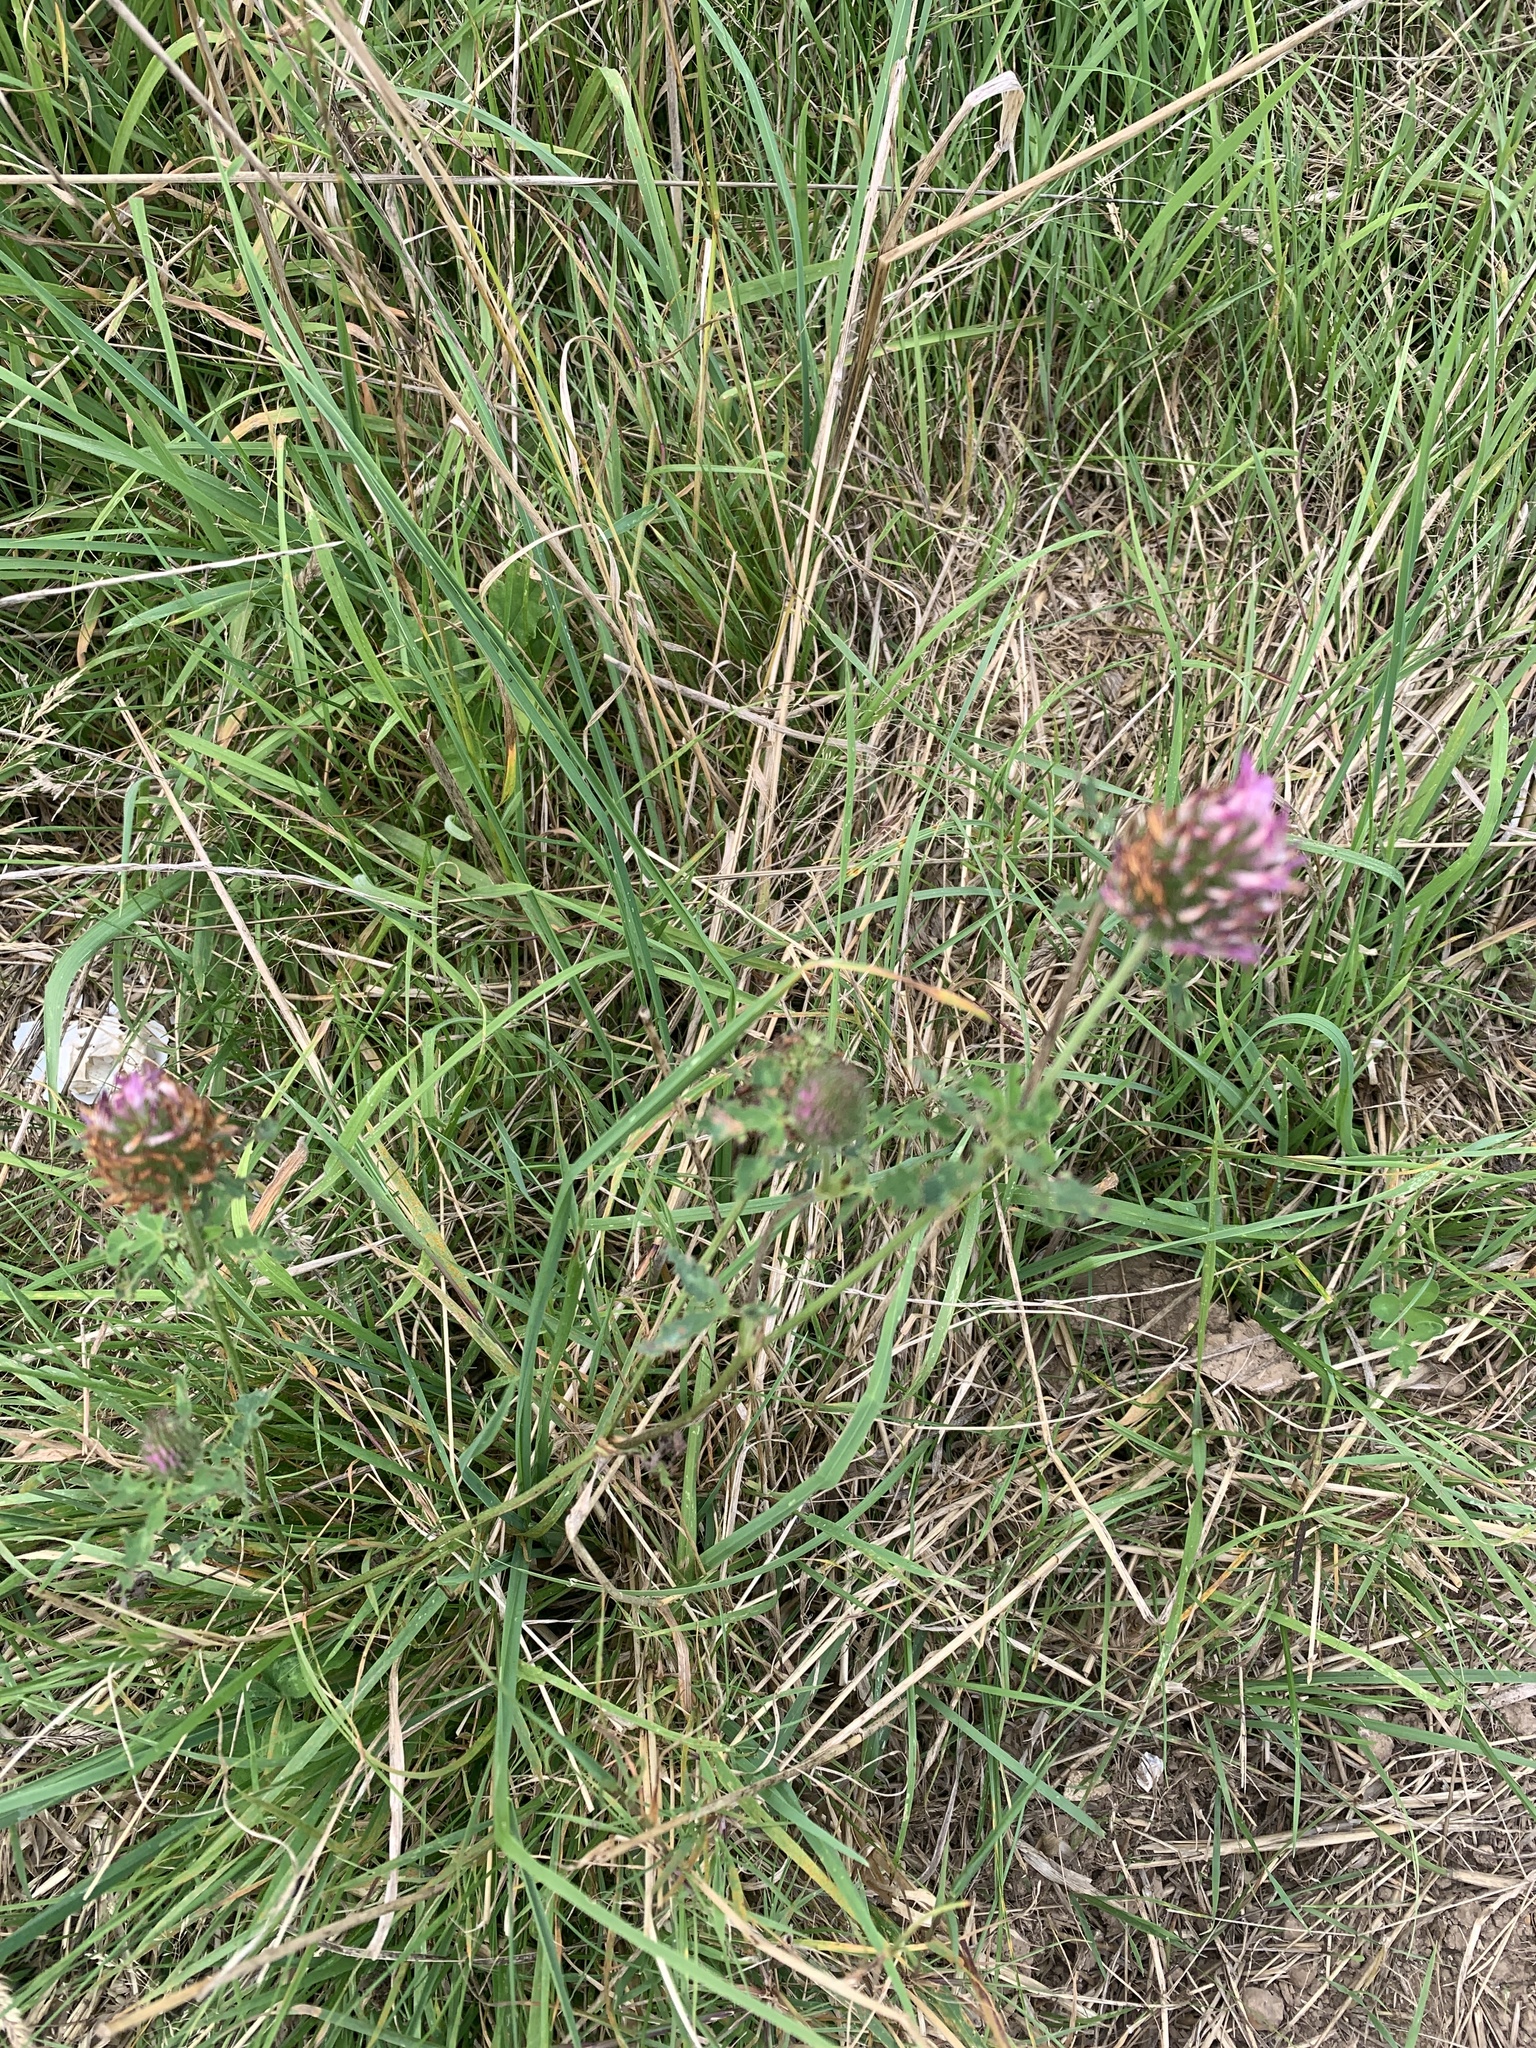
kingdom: Plantae
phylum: Tracheophyta
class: Magnoliopsida
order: Fabales
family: Fabaceae
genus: Trifolium
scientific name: Trifolium pratense
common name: Red clover
